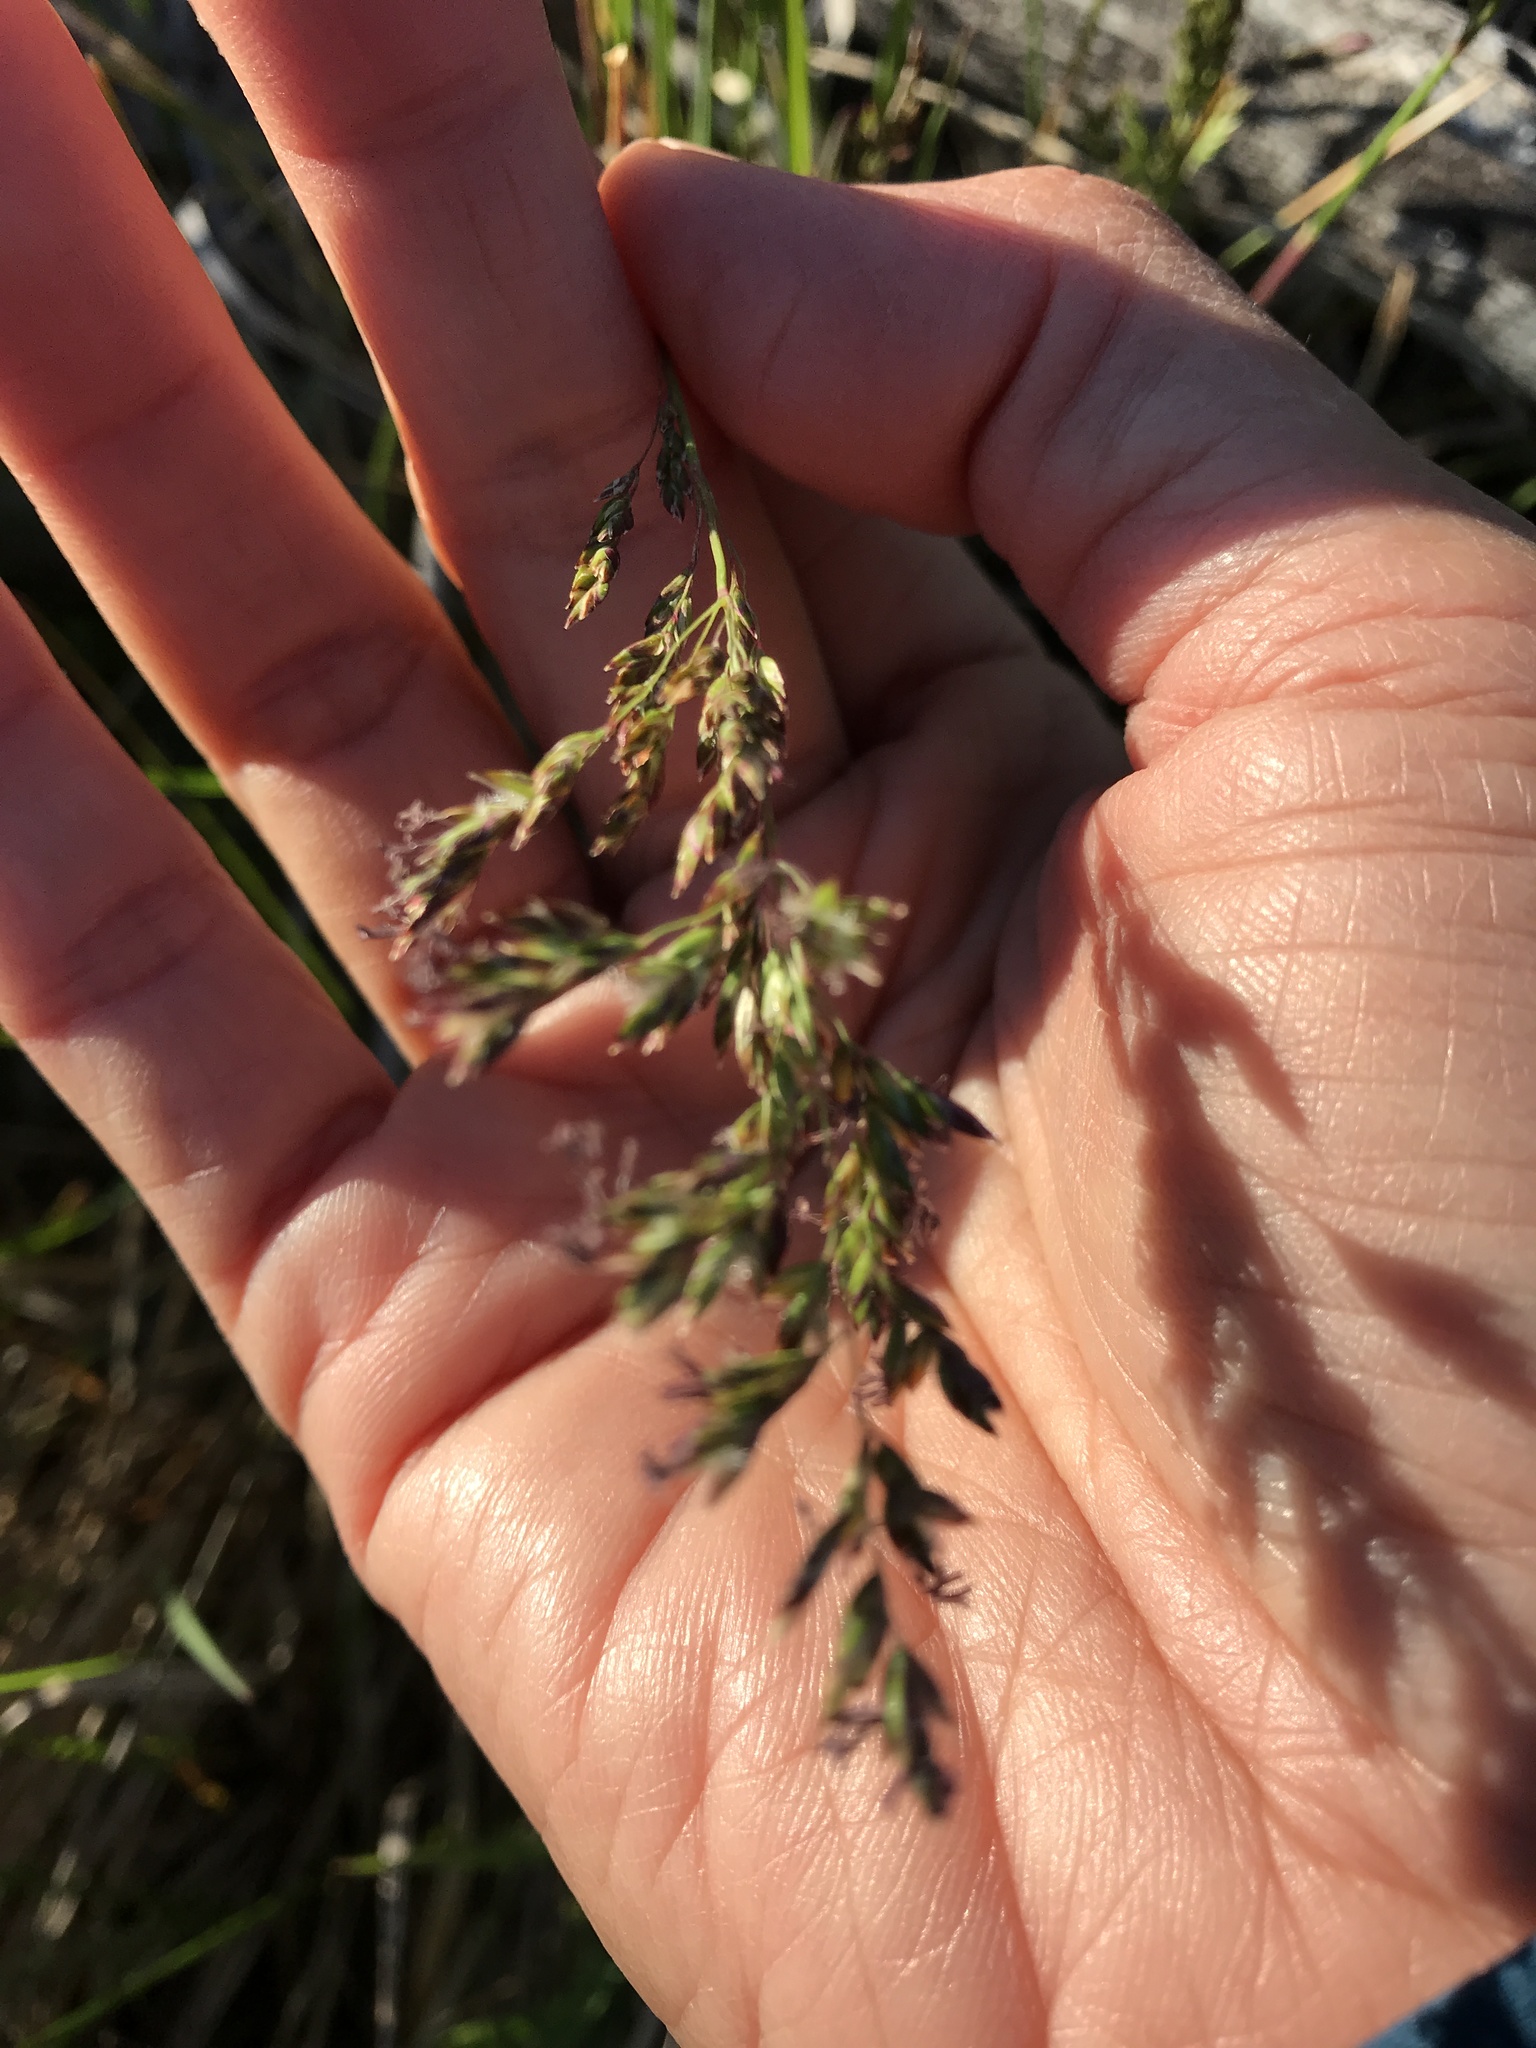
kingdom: Plantae
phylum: Tracheophyta
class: Liliopsida
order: Poales
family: Poaceae
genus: Agrostis
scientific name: Agrostis capillaris
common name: Colonial bentgrass
